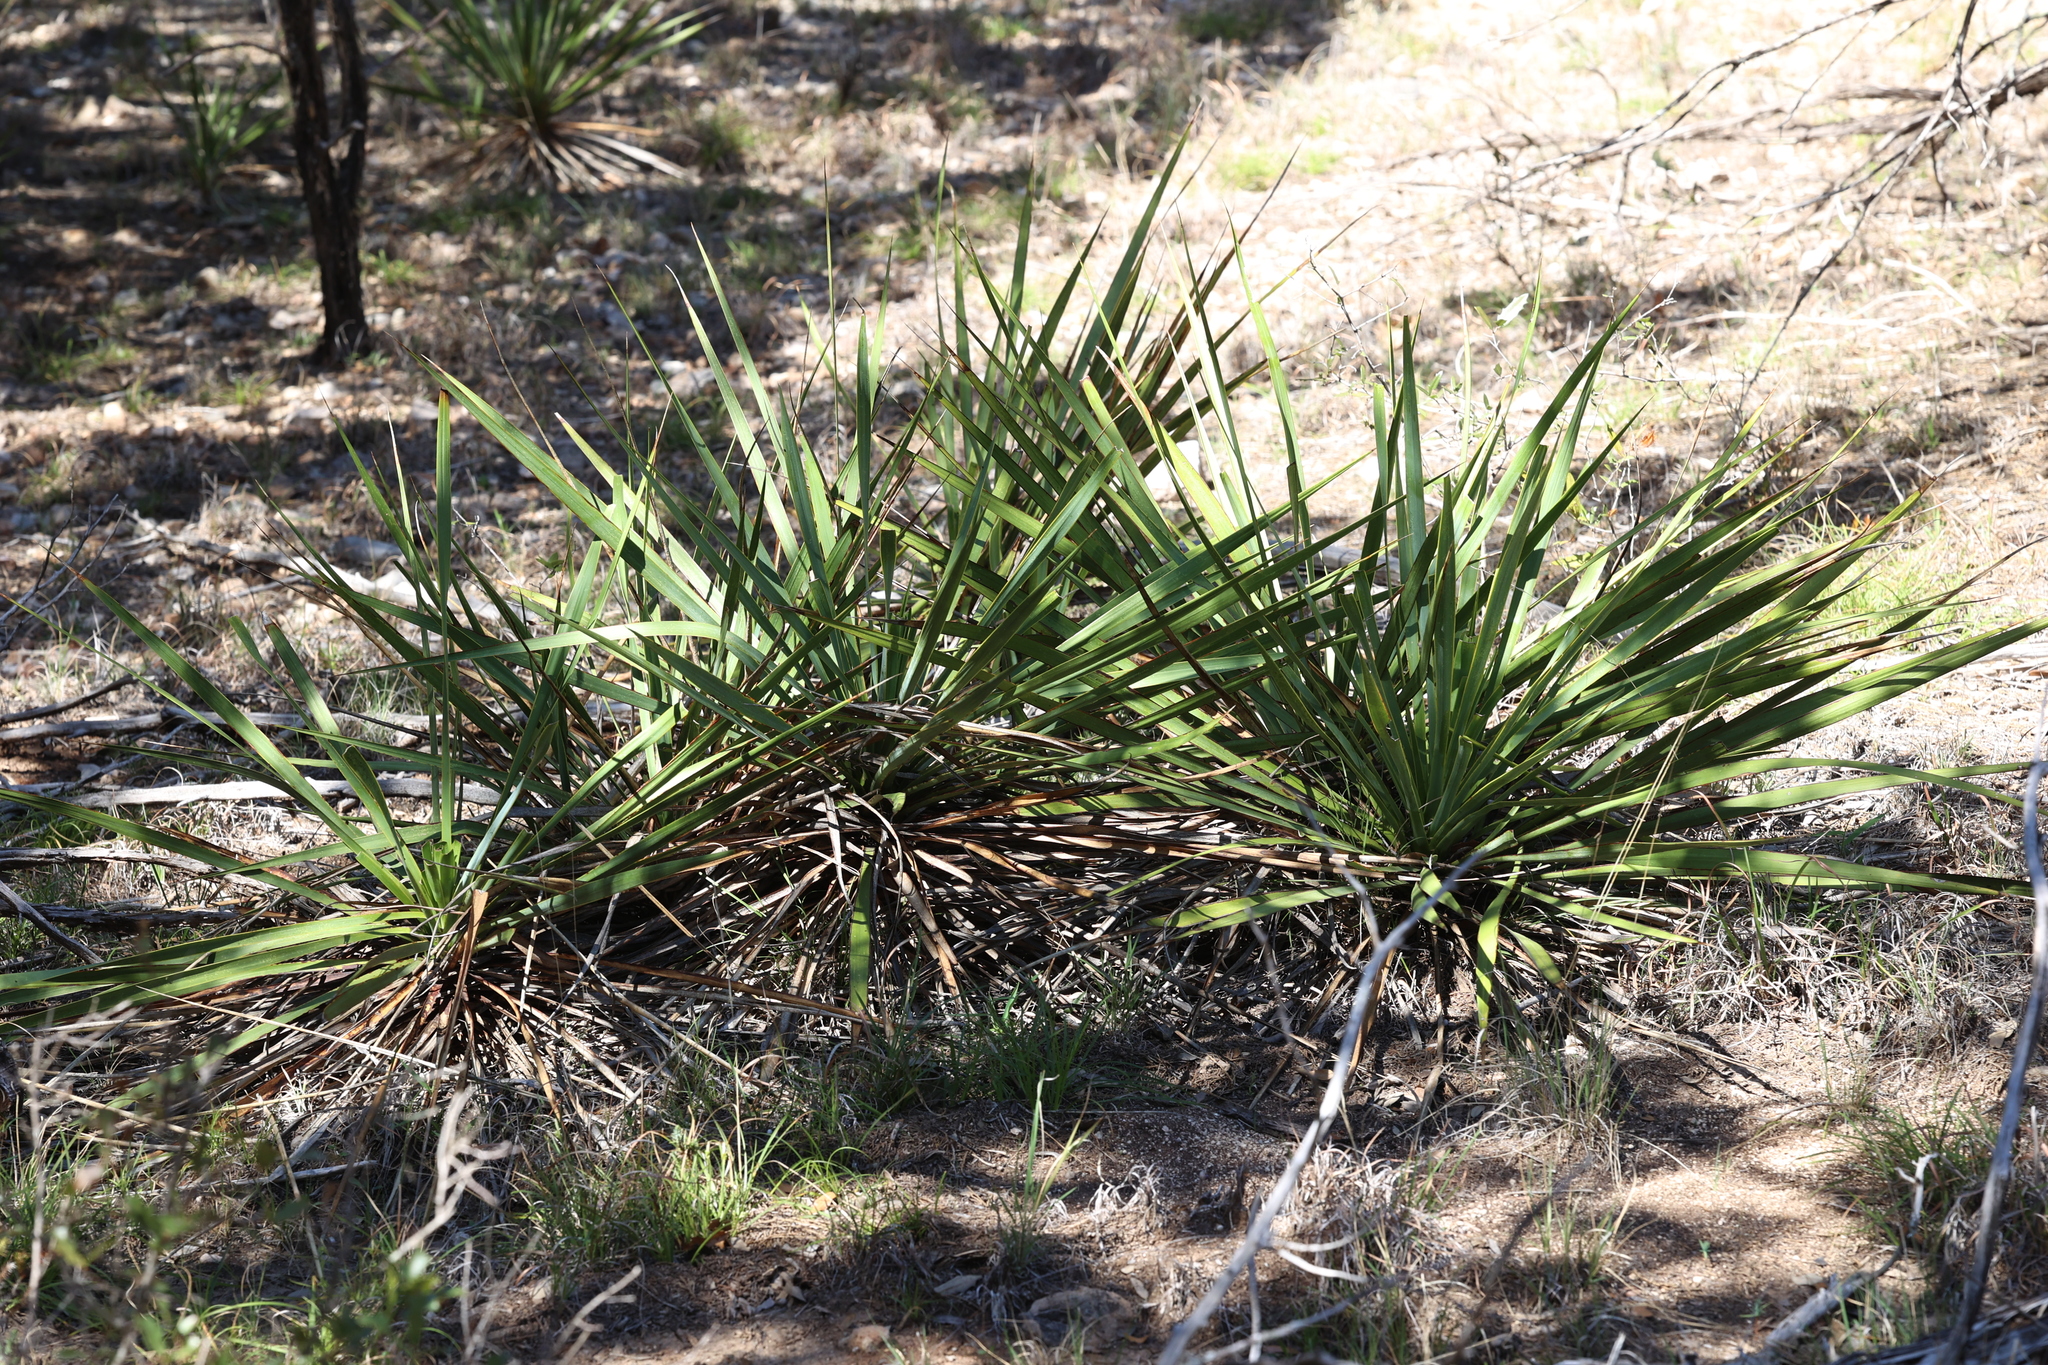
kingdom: Plantae
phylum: Tracheophyta
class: Liliopsida
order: Asparagales
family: Asparagaceae
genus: Yucca
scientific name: Yucca reverchonii
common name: San angelo yucca
